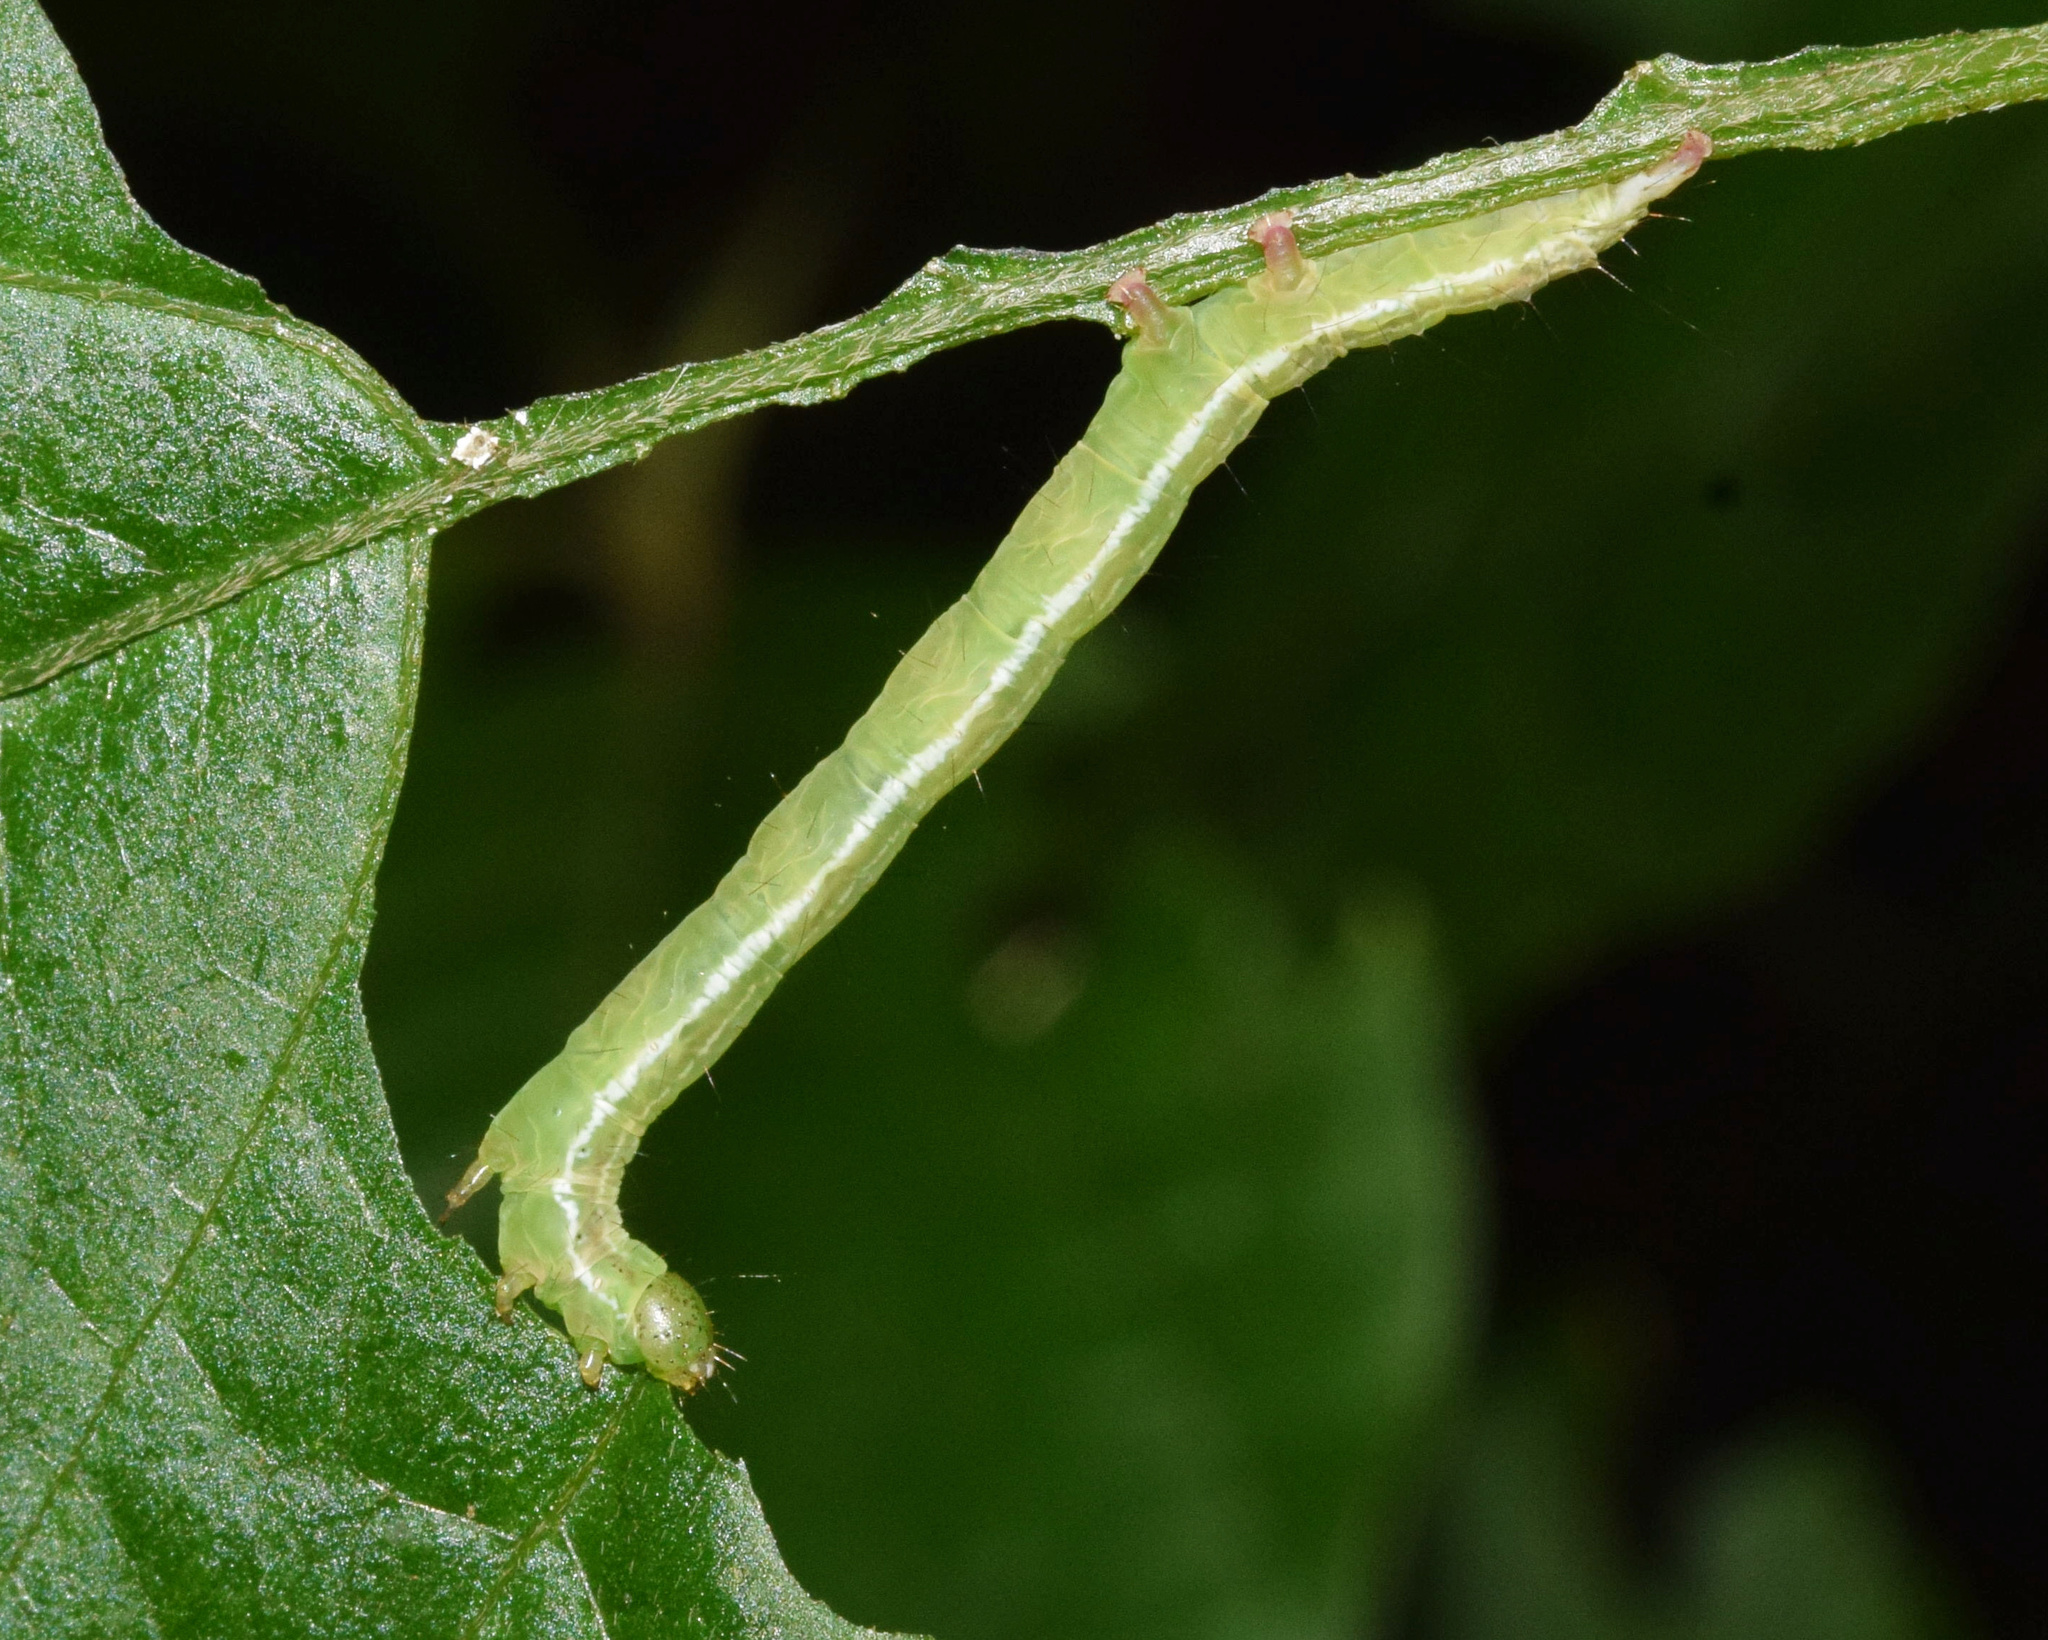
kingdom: Animalia
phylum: Arthropoda
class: Insecta
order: Lepidoptera
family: Noctuidae
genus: Amyna
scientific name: Amyna axis
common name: Cutworm
